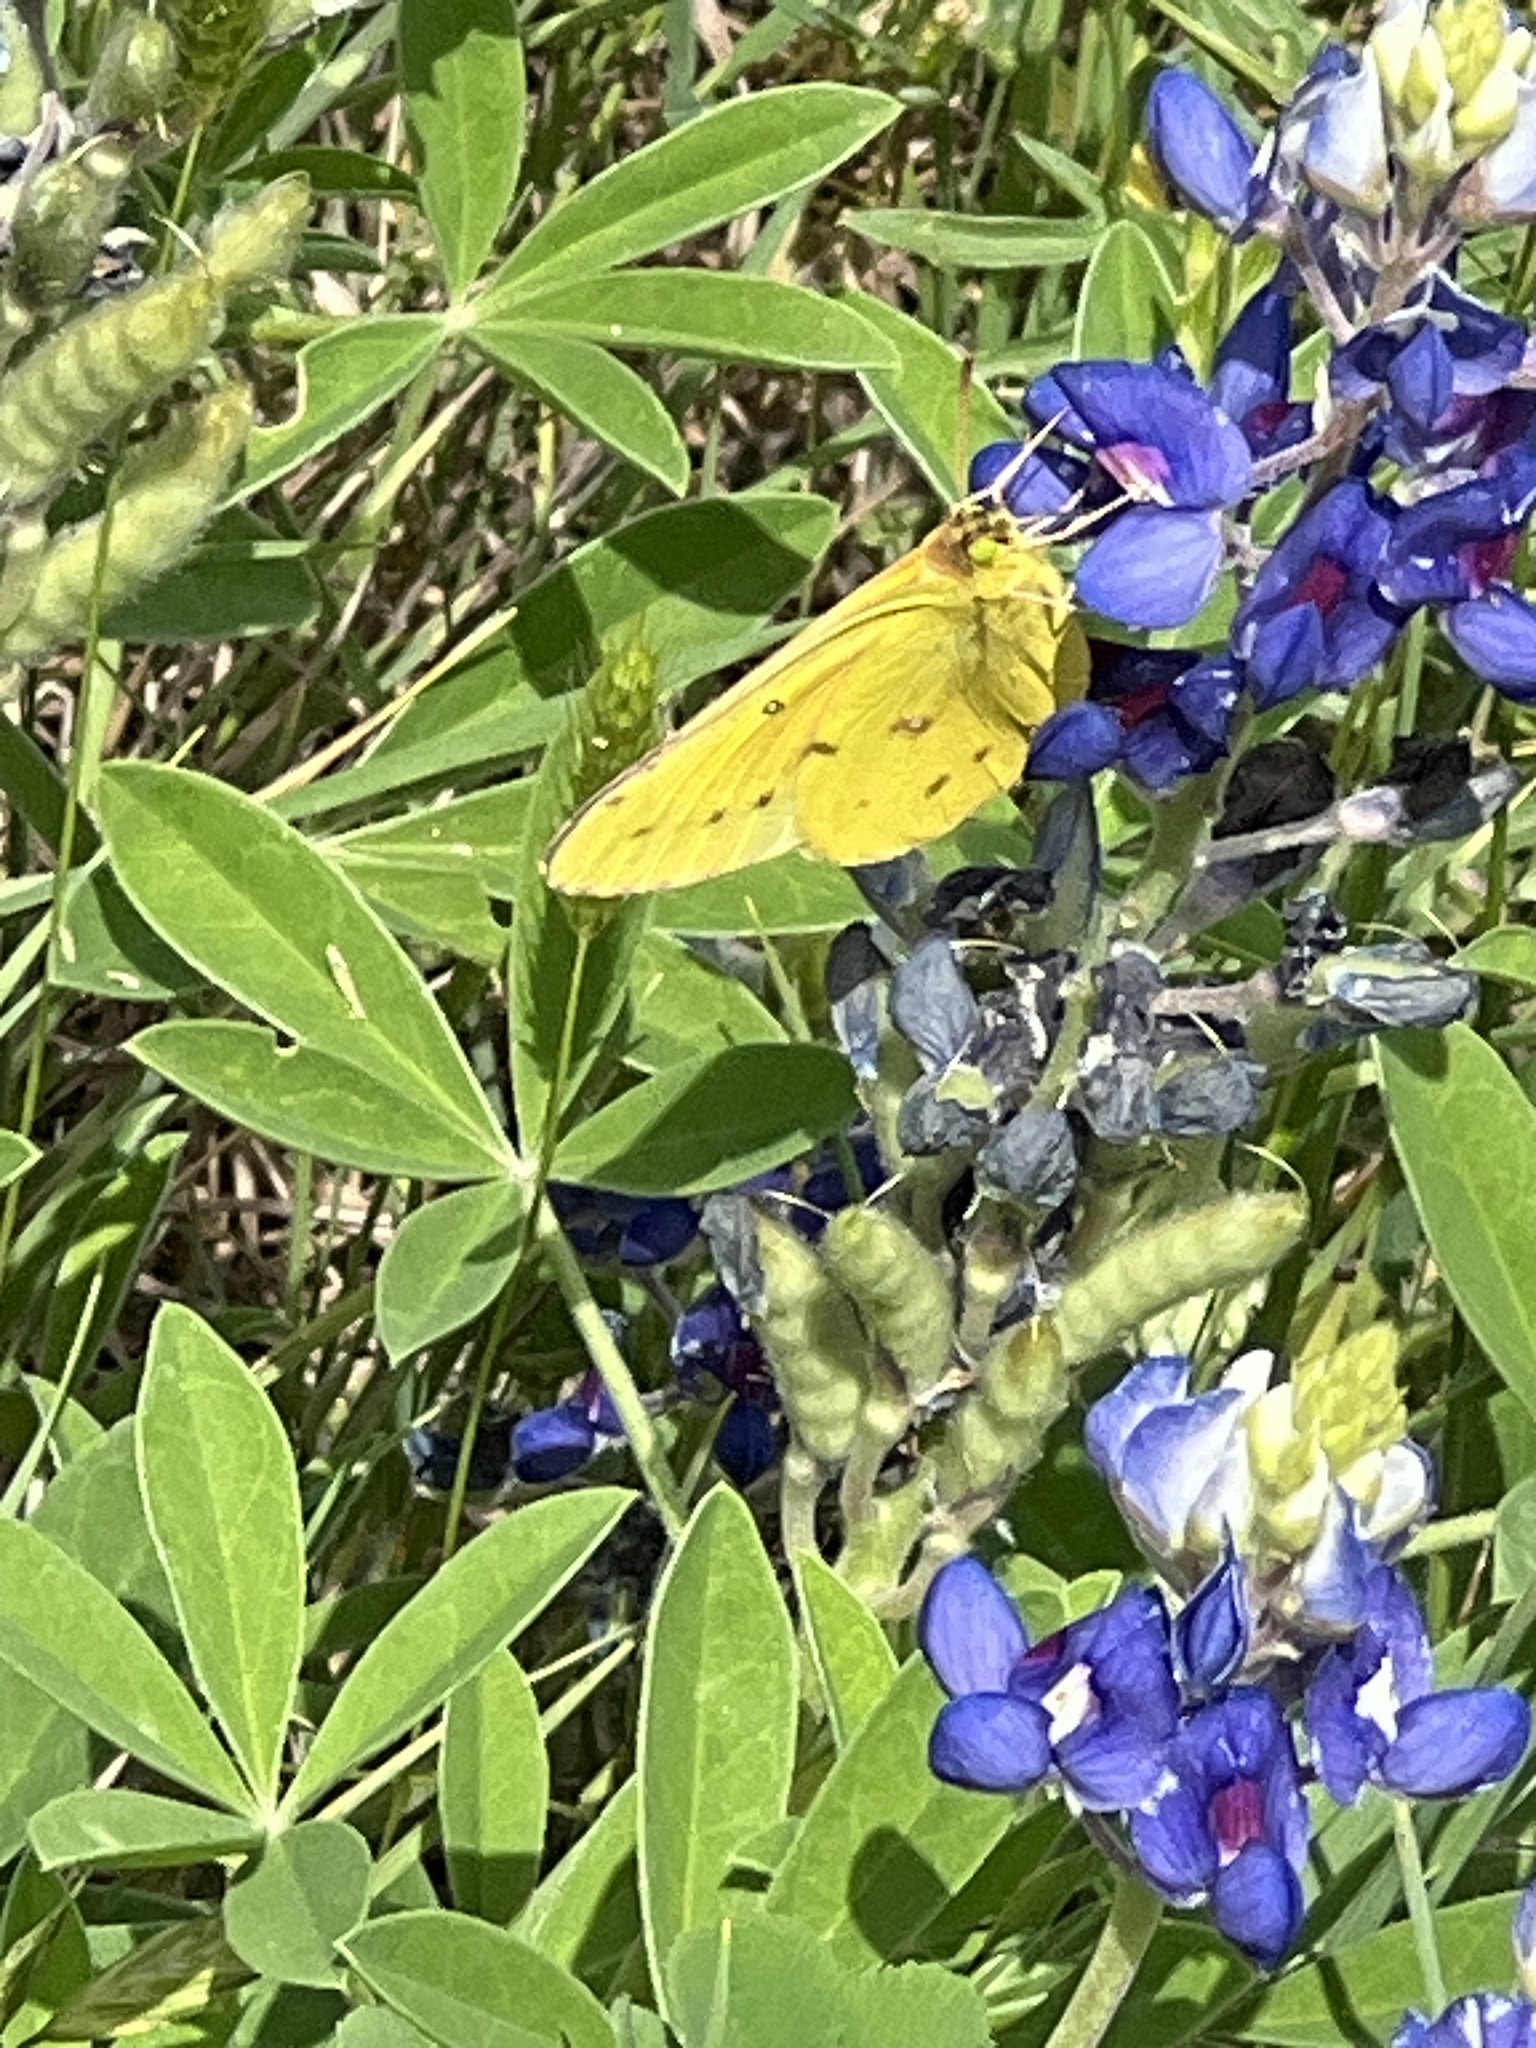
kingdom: Animalia
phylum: Arthropoda
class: Insecta
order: Lepidoptera
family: Pieridae
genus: Colias
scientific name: Colias eurytheme
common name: Alfalfa butterfly
